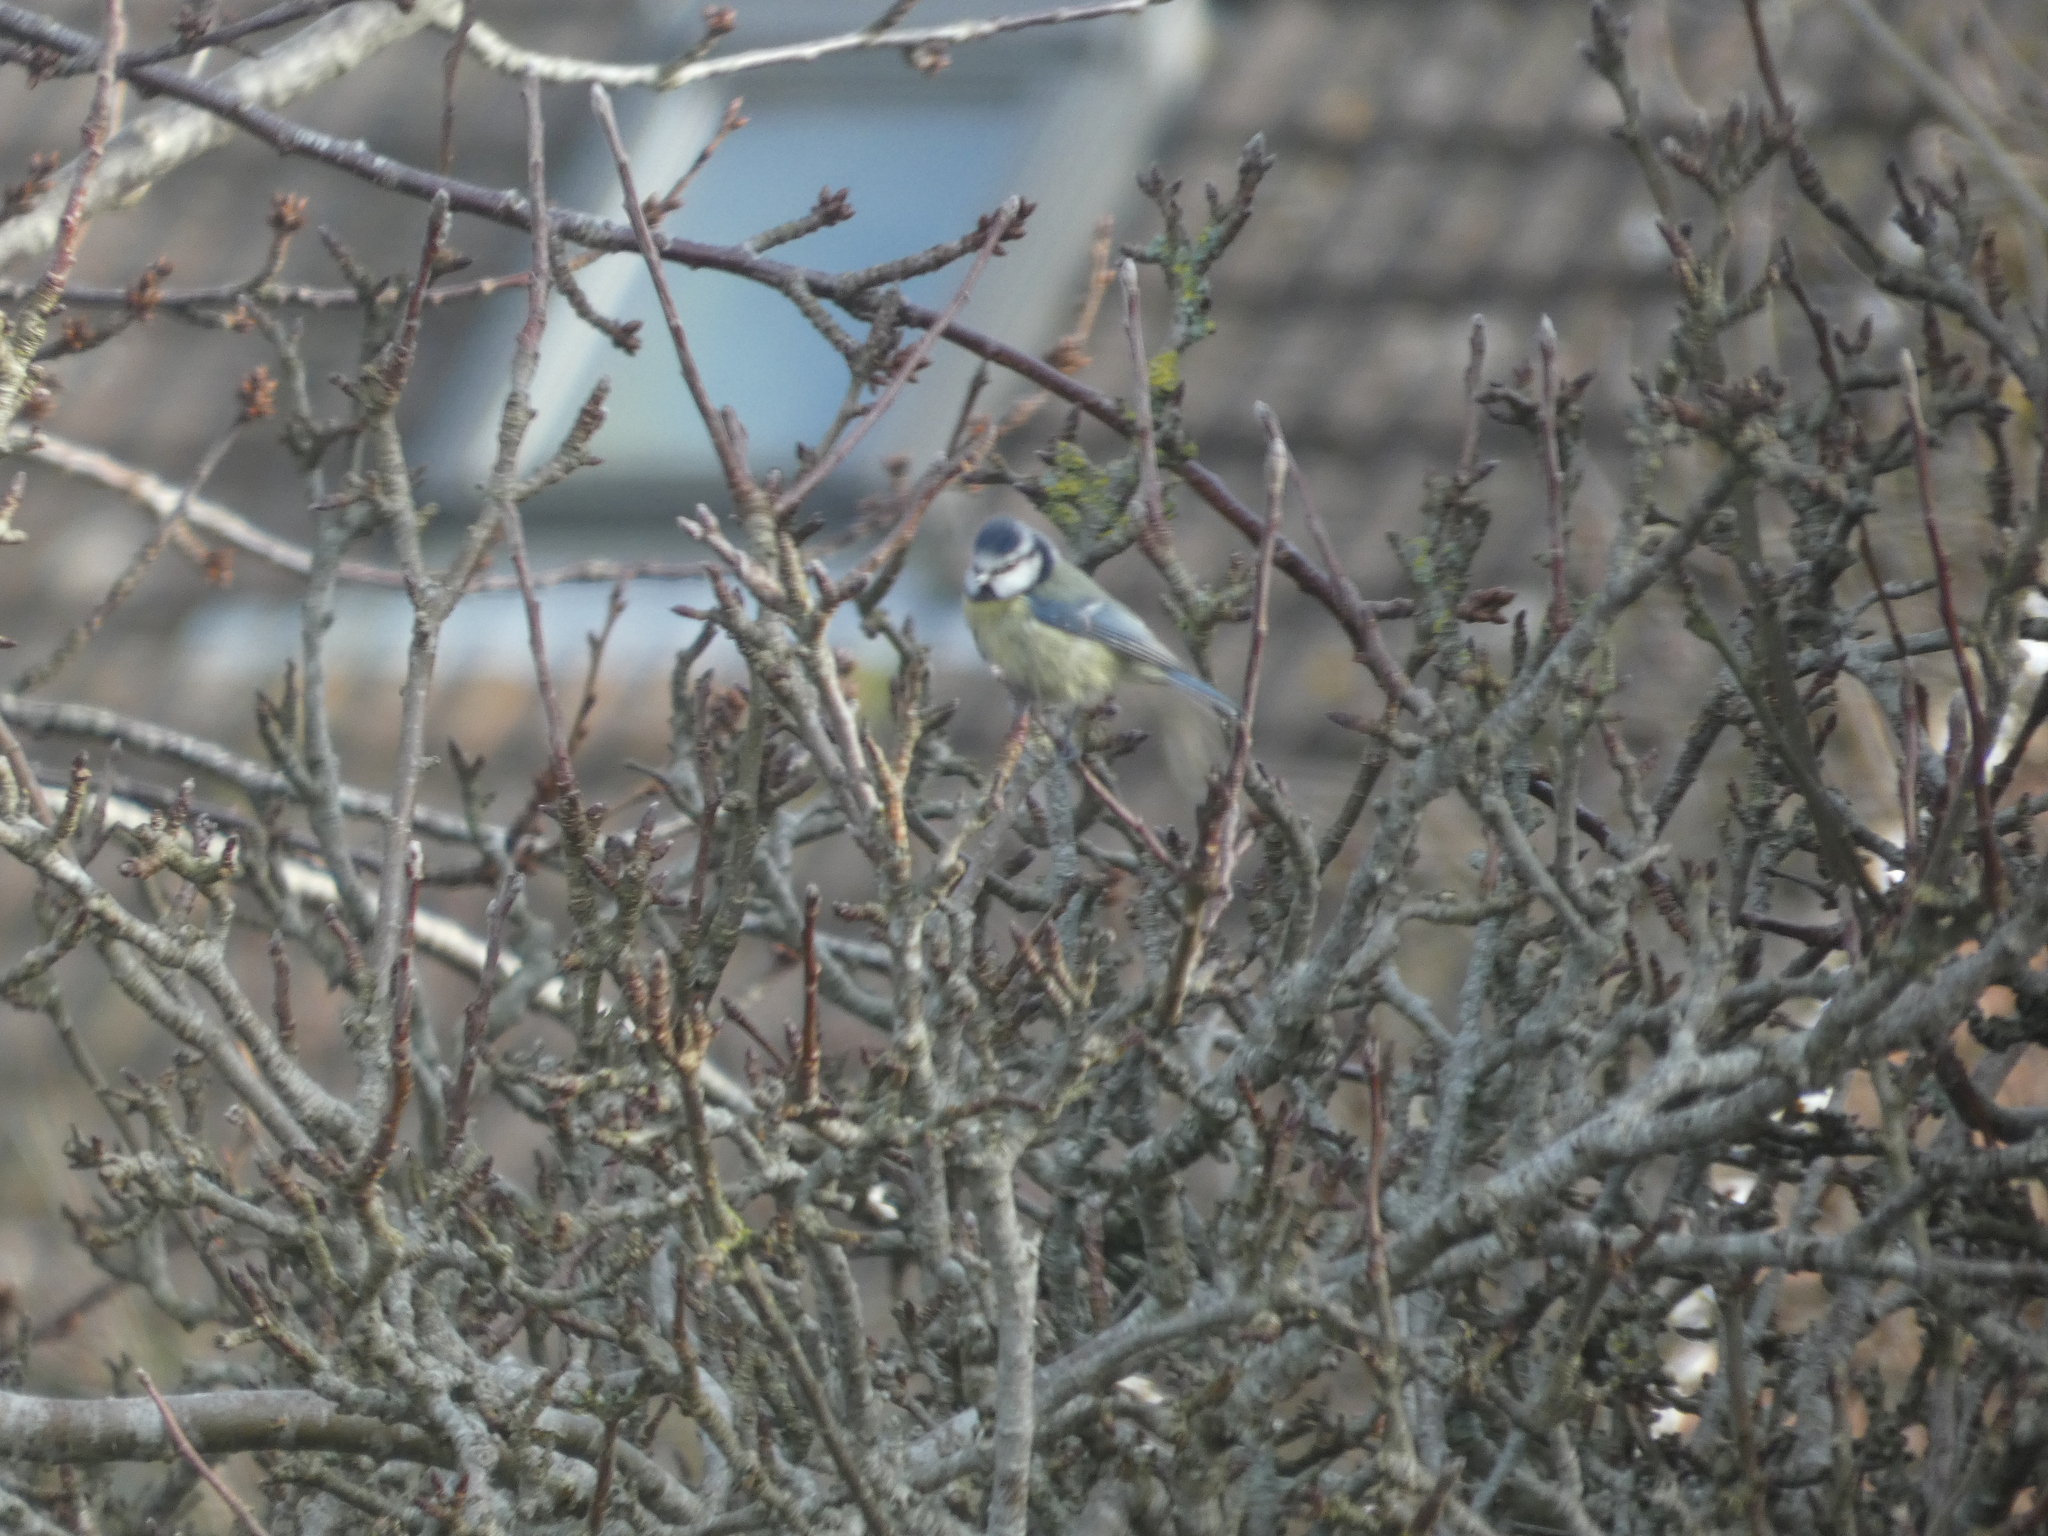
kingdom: Animalia
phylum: Chordata
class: Aves
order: Passeriformes
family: Paridae
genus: Cyanistes
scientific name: Cyanistes caeruleus
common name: Eurasian blue tit
